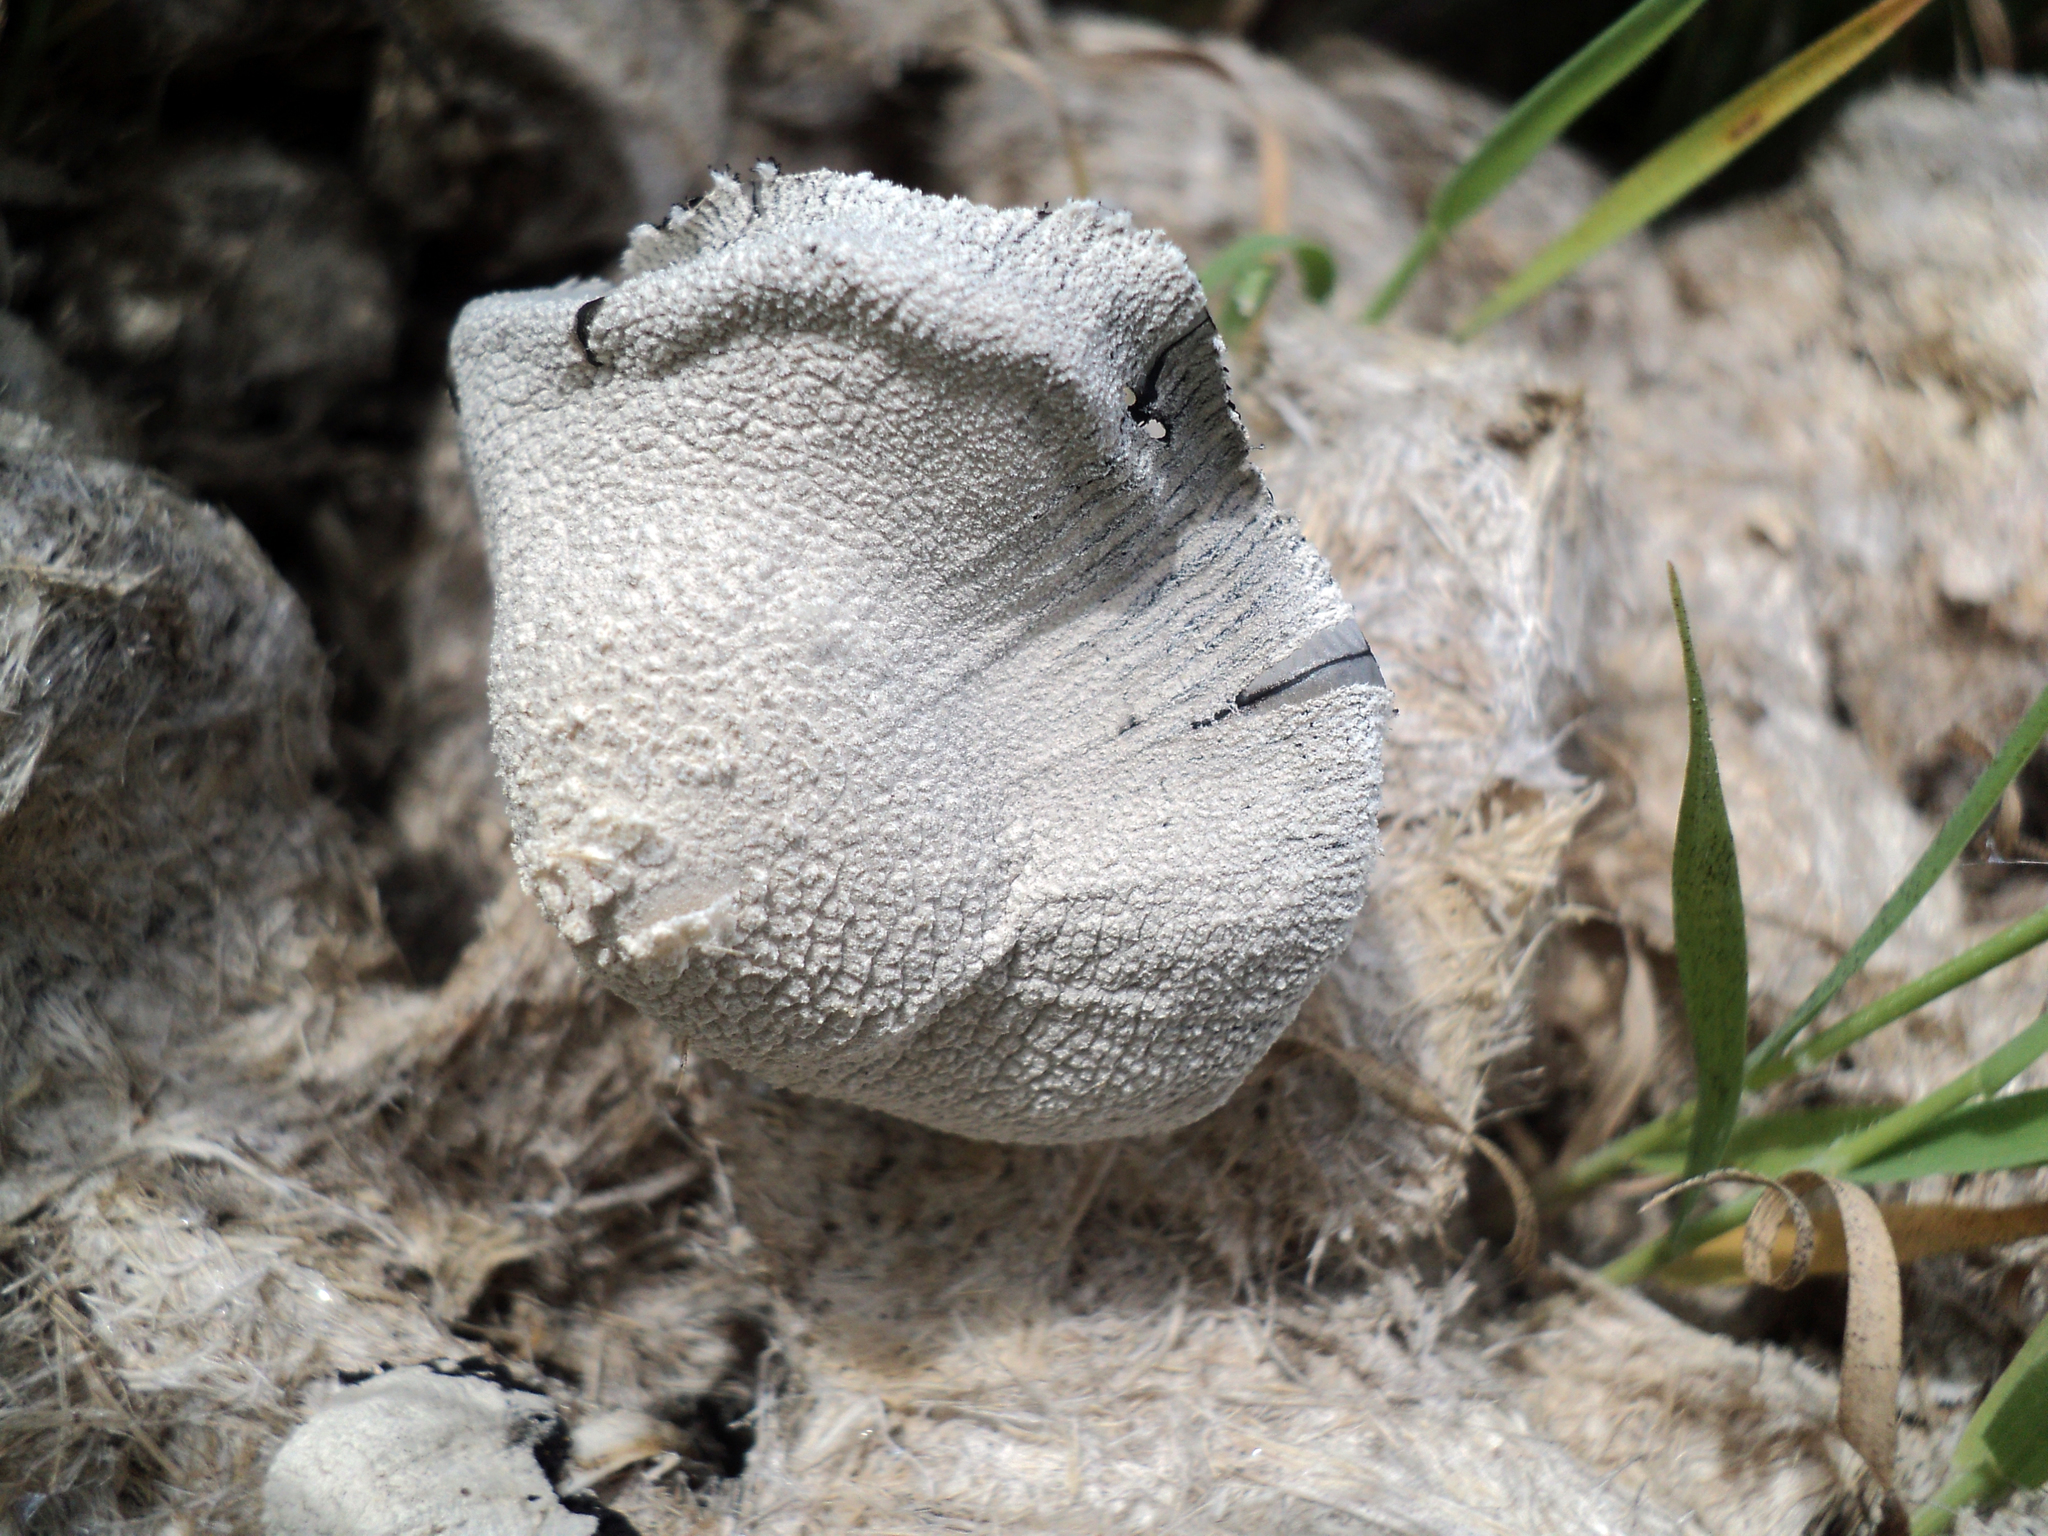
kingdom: Fungi
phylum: Basidiomycota
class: Agaricomycetes
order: Agaricales
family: Psathyrellaceae
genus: Coprinopsis
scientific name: Coprinopsis nivea
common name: Snowy inkcap
